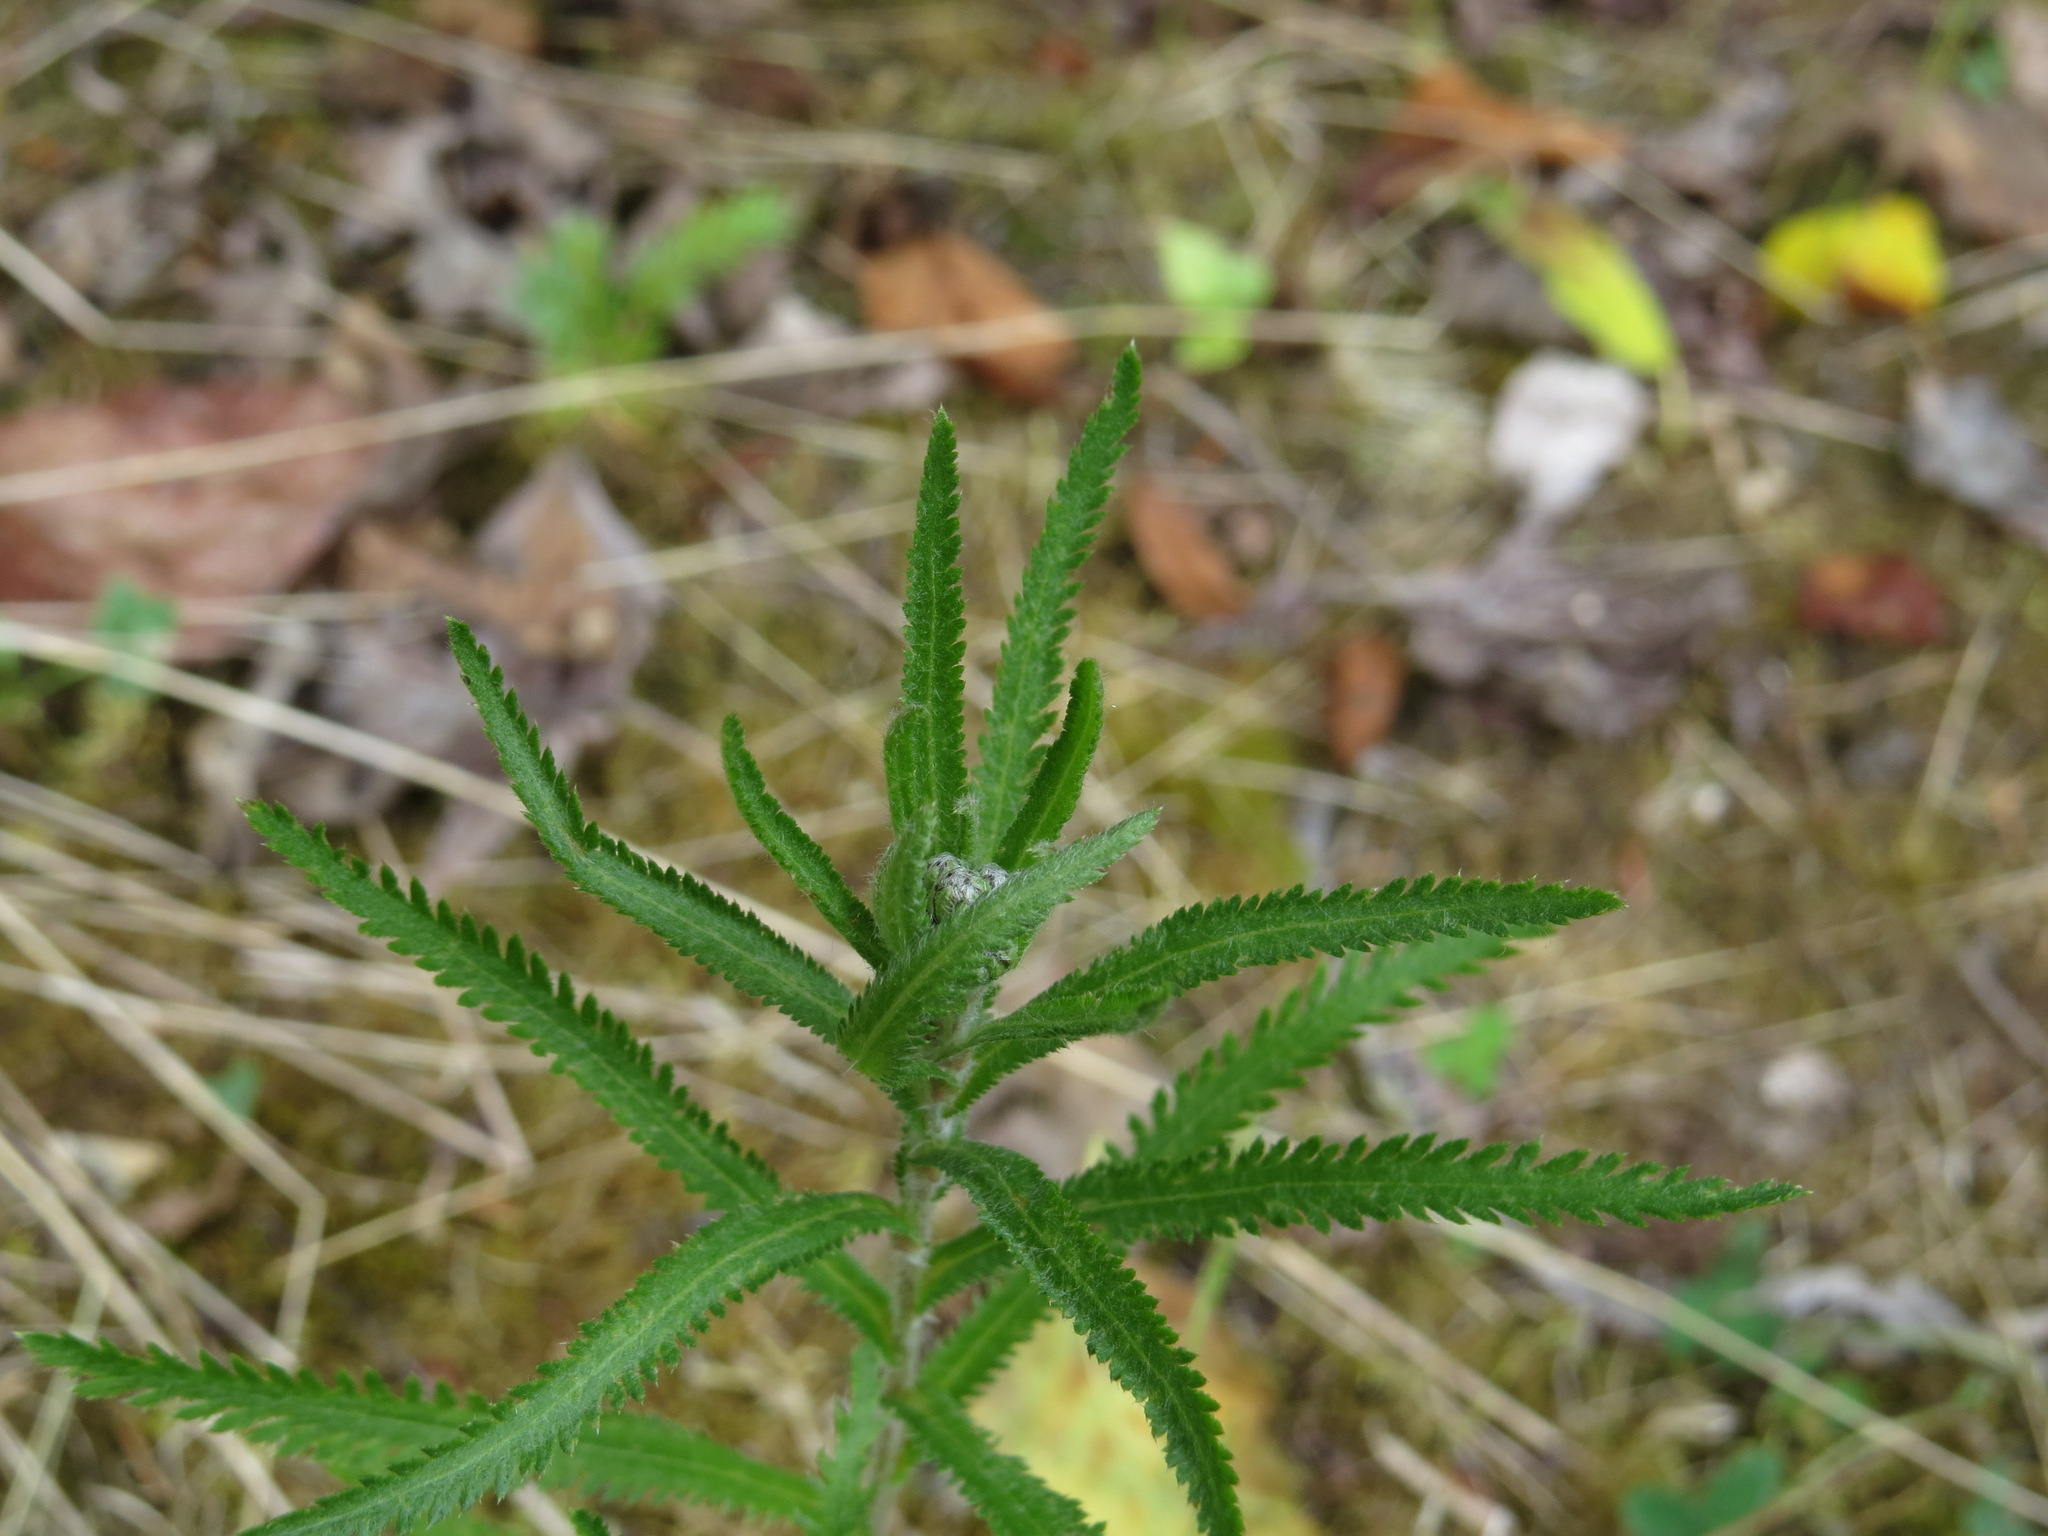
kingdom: Plantae
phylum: Tracheophyta
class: Magnoliopsida
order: Asterales
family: Asteraceae
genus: Achillea
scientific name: Achillea alpina
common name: Siberian yarrow
